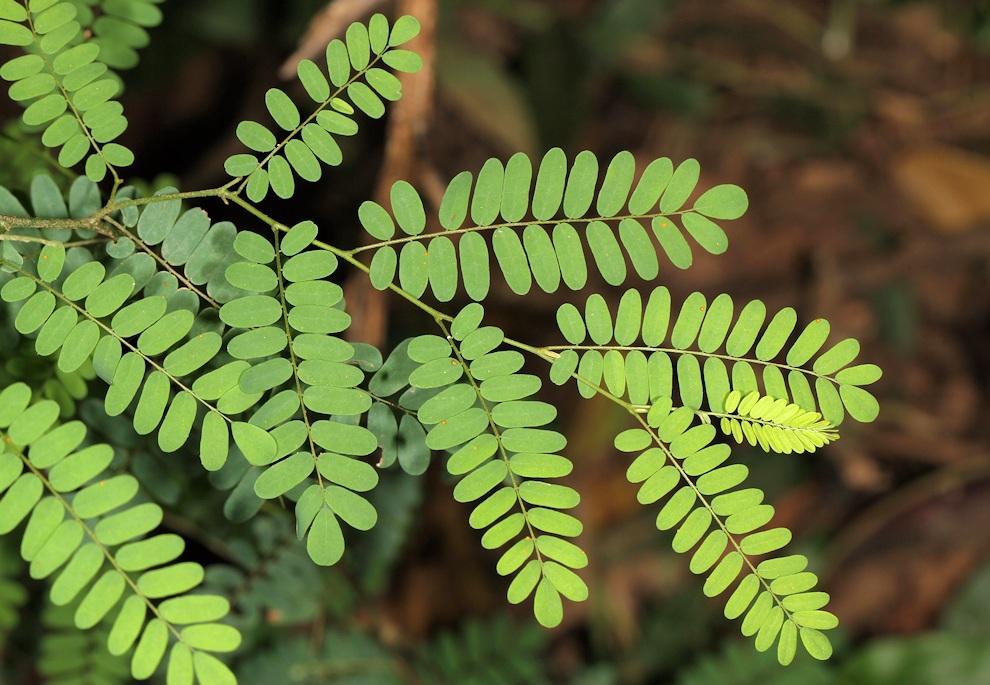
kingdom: Plantae
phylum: Tracheophyta
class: Magnoliopsida
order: Fabales
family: Fabaceae
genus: Dalbergia
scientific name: Dalbergia armata
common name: Hluhluwe climber
